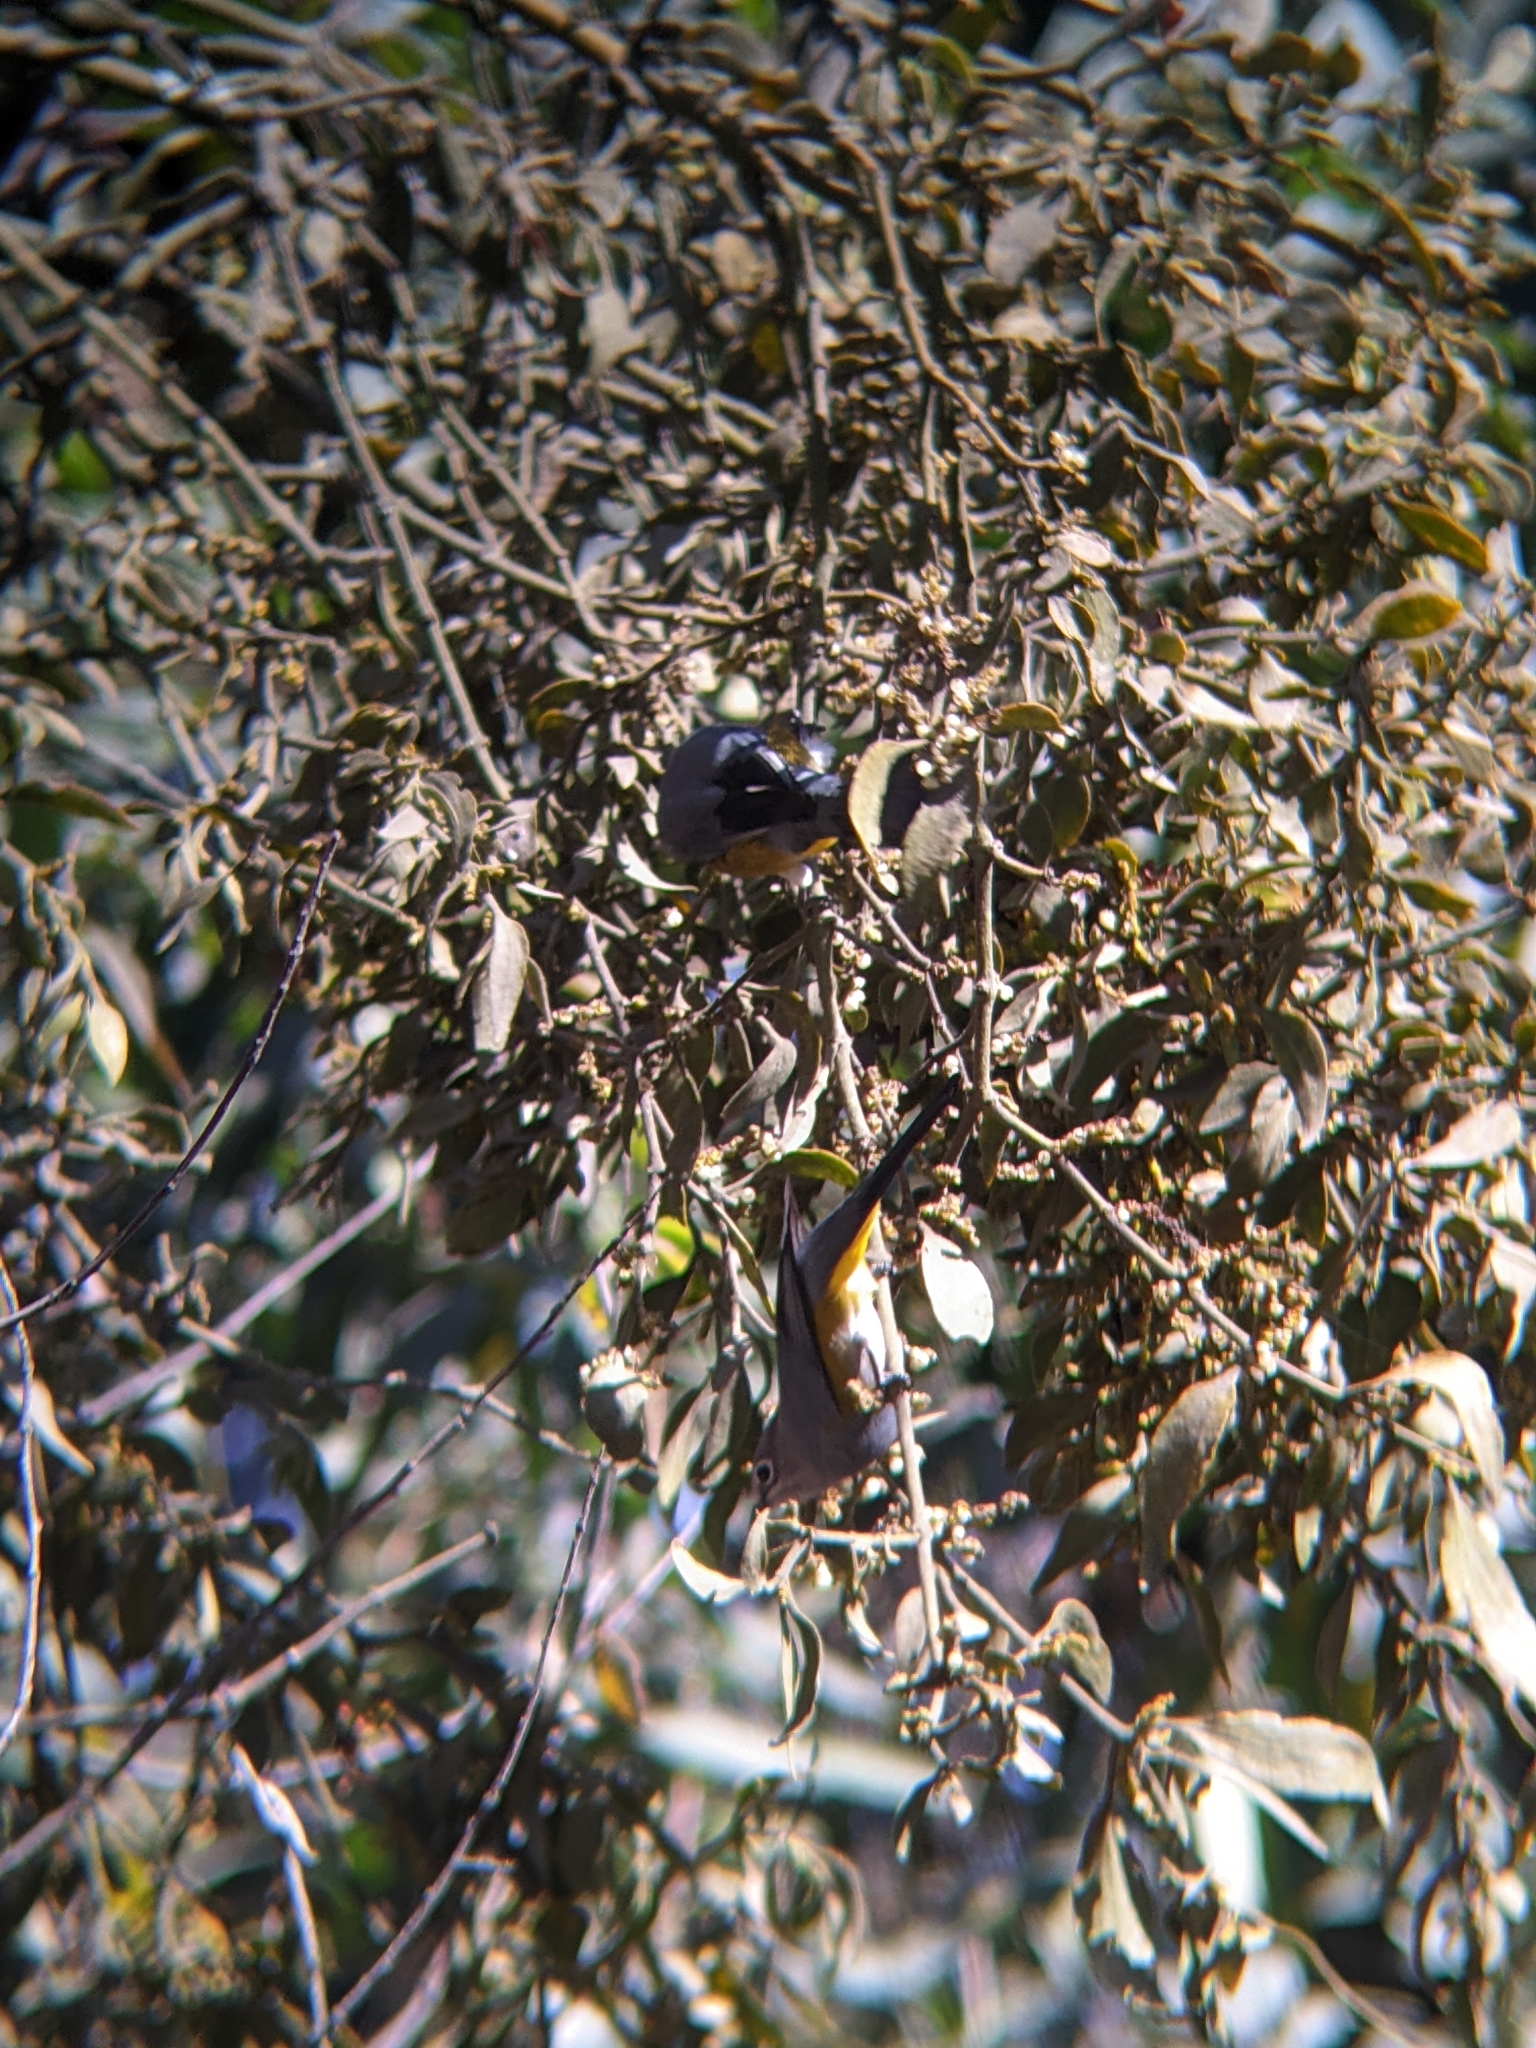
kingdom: Animalia
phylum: Chordata
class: Aves
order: Passeriformes
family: Ptilogonatidae
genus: Ptilogonys
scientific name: Ptilogonys cinereus
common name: Gray silky-flycatcher
